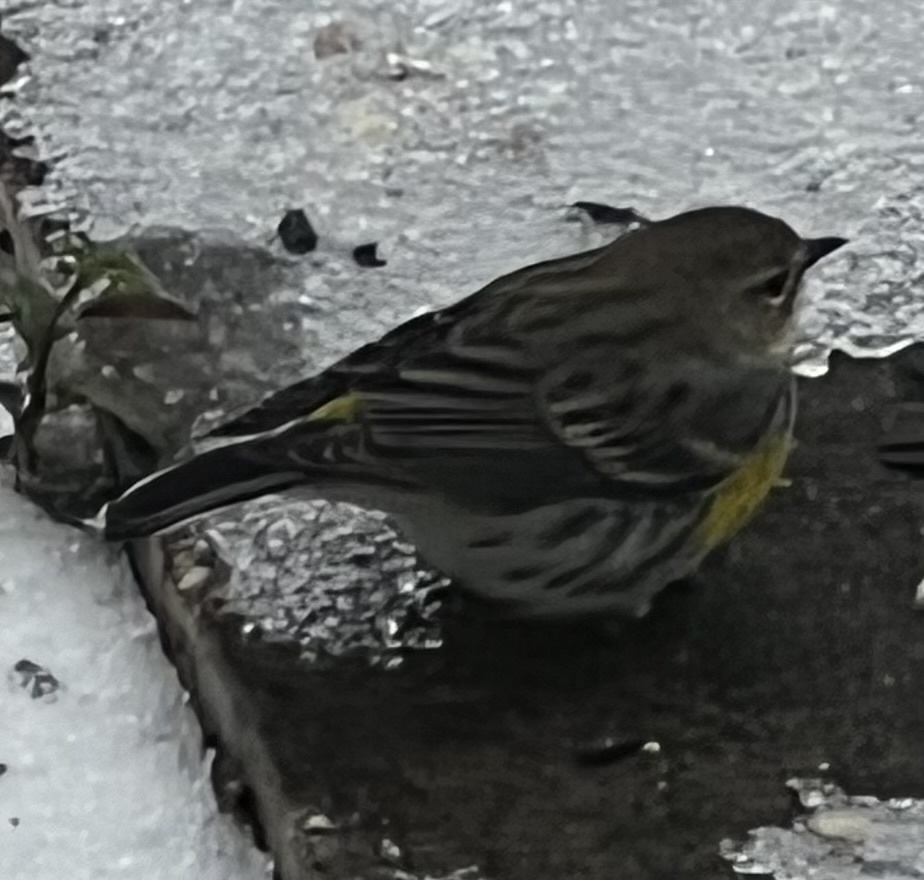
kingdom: Animalia
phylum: Chordata
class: Aves
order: Passeriformes
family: Parulidae
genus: Setophaga
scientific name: Setophaga coronata
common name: Myrtle warbler
